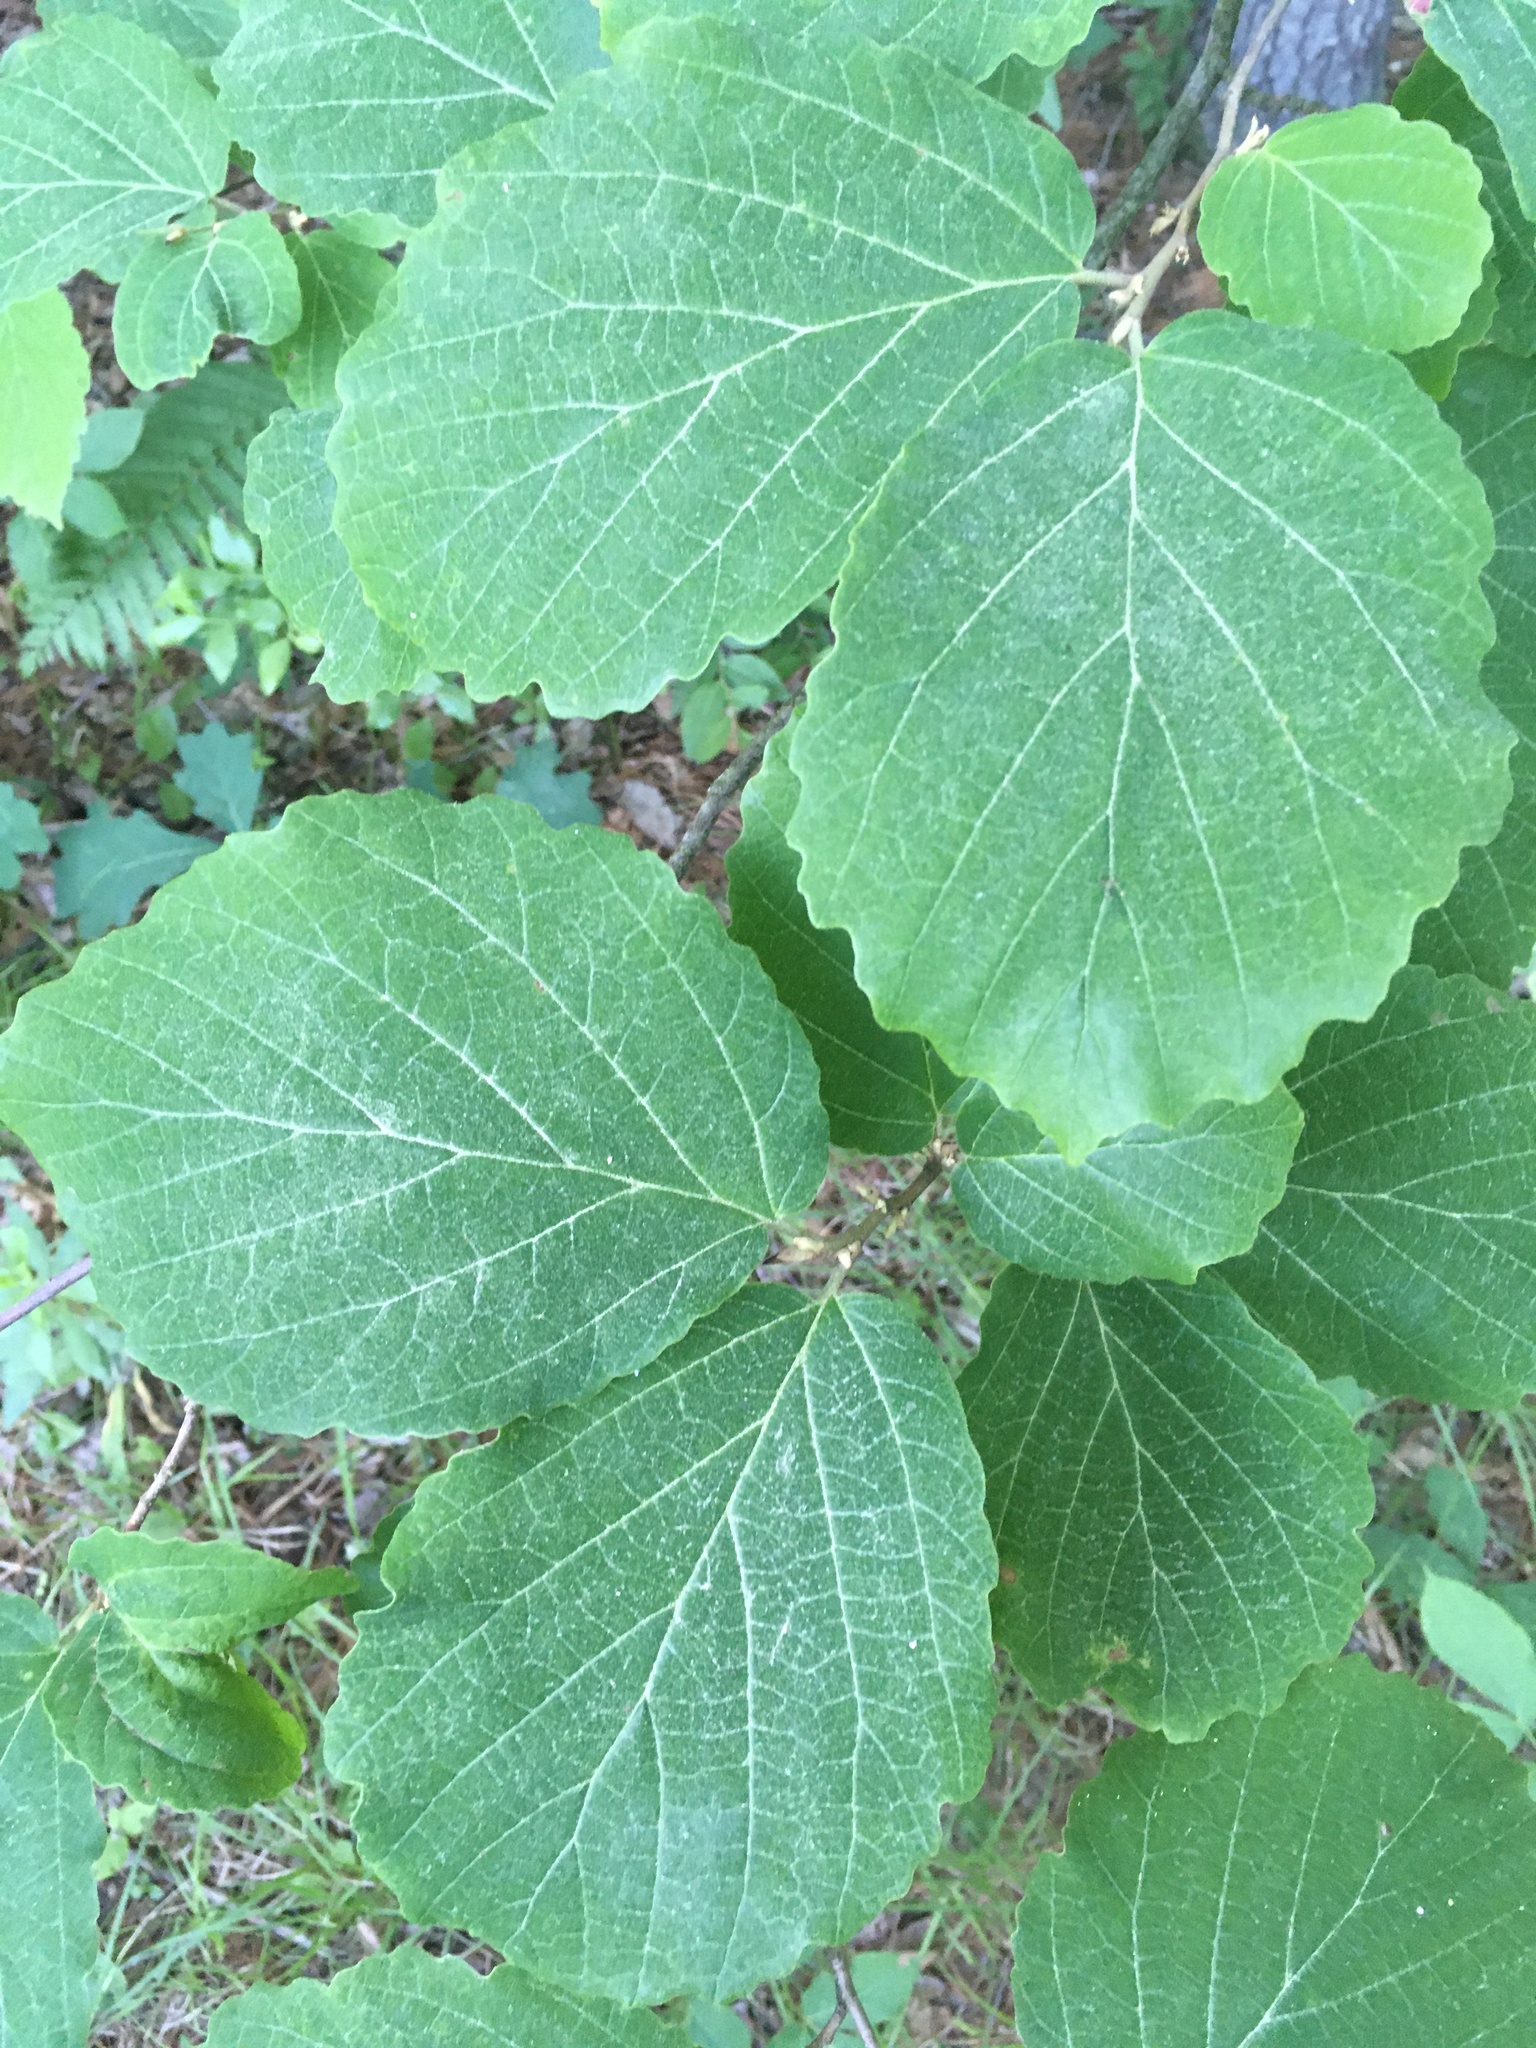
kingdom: Plantae
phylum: Tracheophyta
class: Magnoliopsida
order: Saxifragales
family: Hamamelidaceae
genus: Hamamelis
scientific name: Hamamelis virginiana
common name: Witch-hazel
